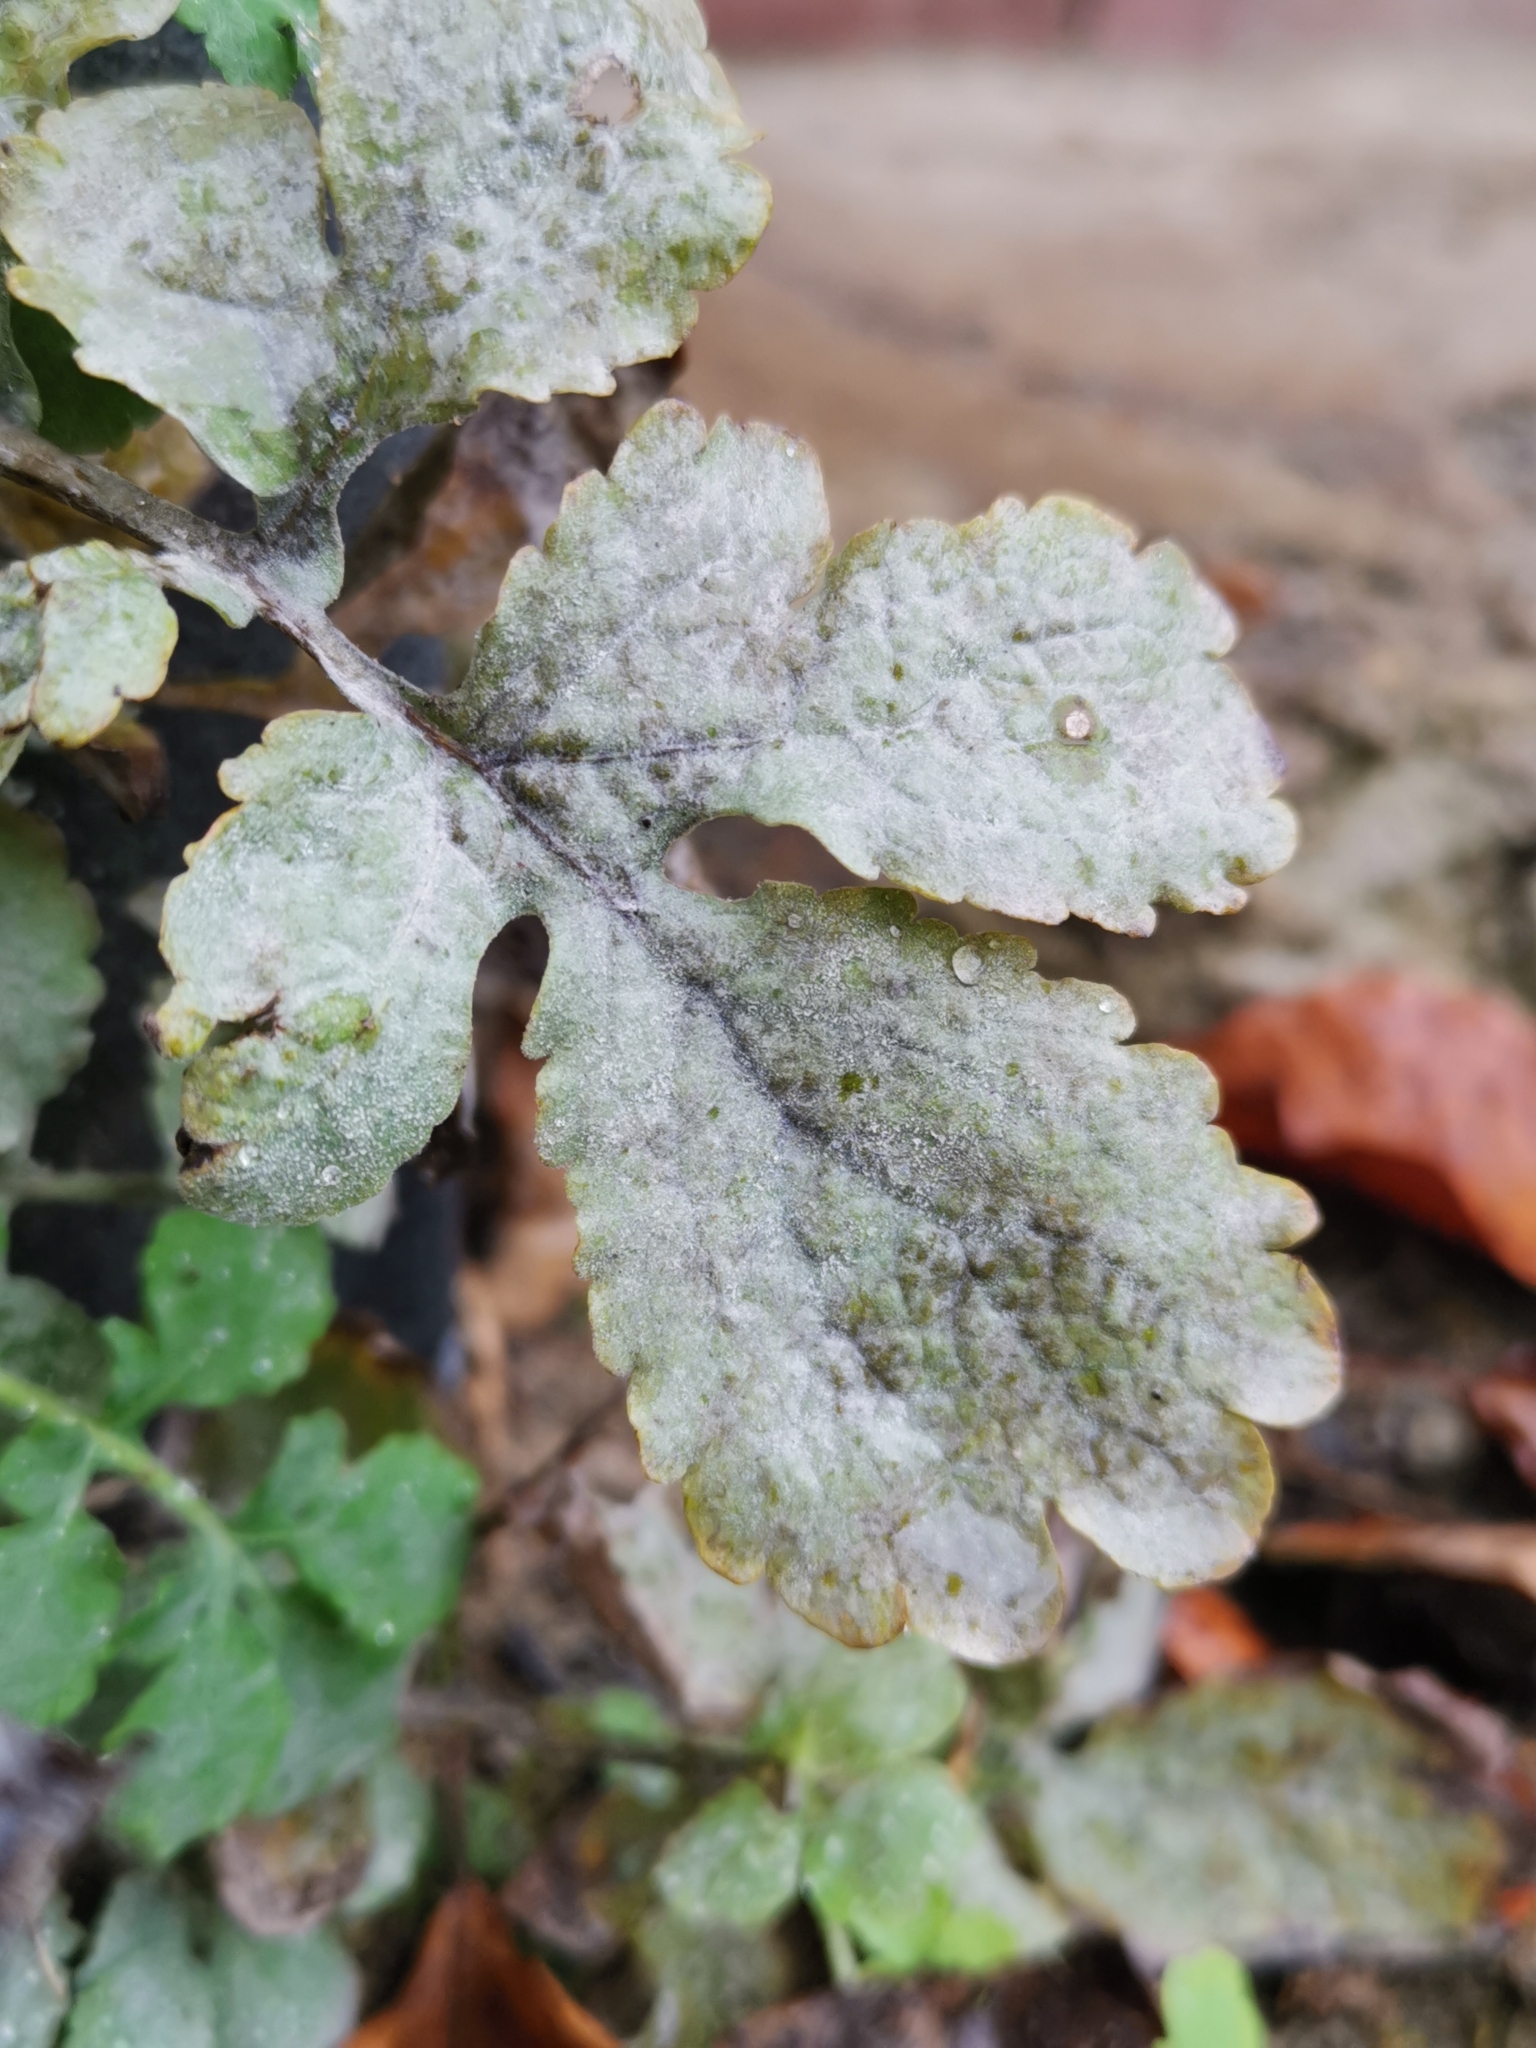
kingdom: Fungi
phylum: Ascomycota
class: Leotiomycetes
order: Helotiales
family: Erysiphaceae
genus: Erysiphe
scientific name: Erysiphe macleayae
